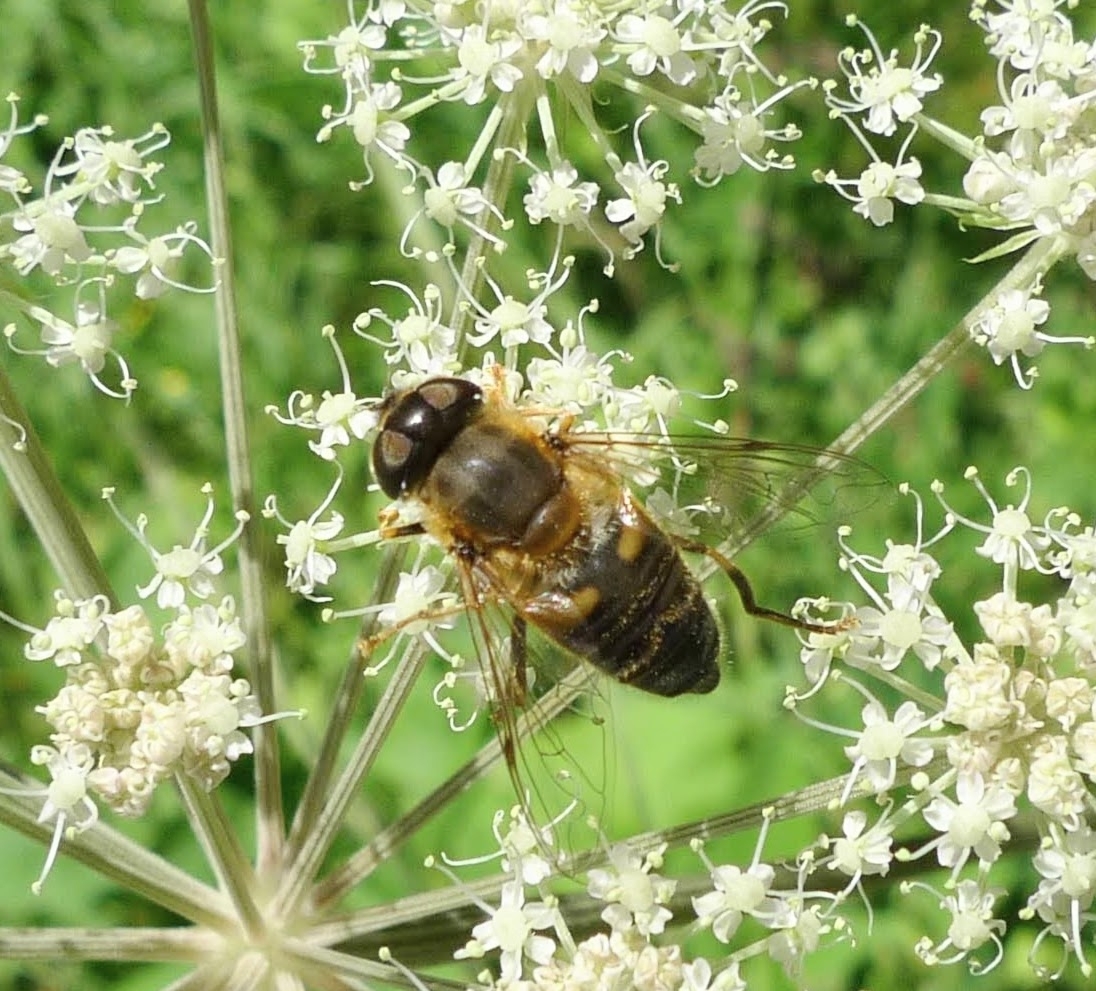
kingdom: Animalia
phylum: Arthropoda
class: Insecta
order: Diptera
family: Syrphidae
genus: Eristalis
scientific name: Eristalis pertinax
